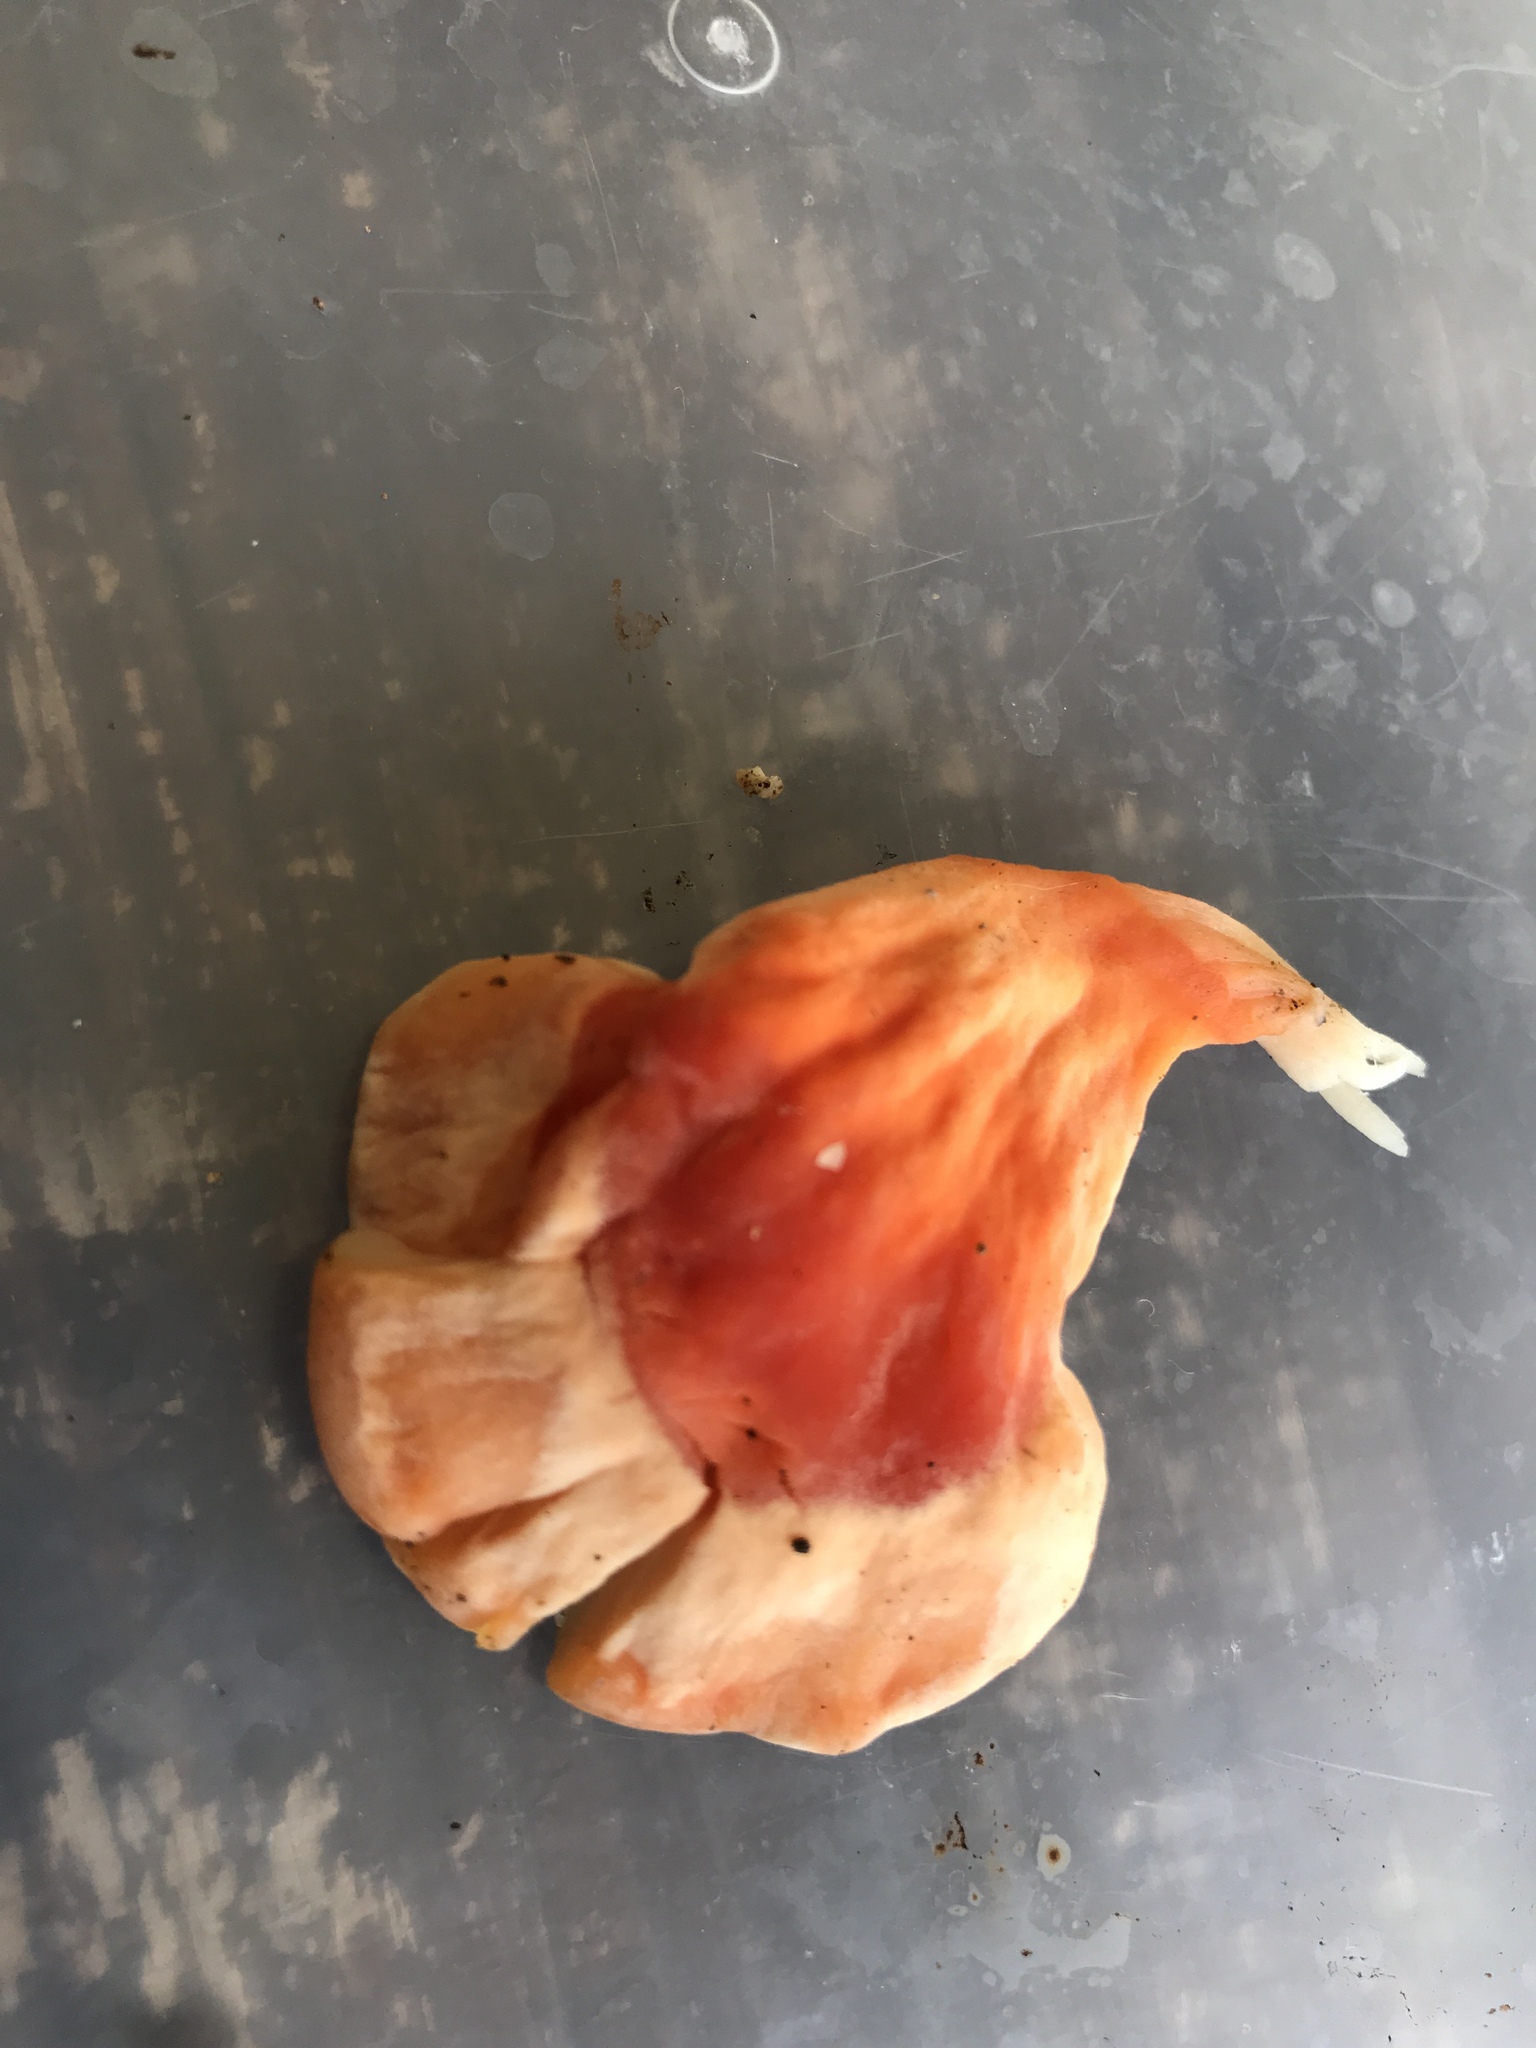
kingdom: Fungi
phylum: Basidiomycota
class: Agaricomycetes
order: Polyporales
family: Laetiporaceae
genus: Laetiporus
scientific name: Laetiporus sulphureus
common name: Chicken of the woods
